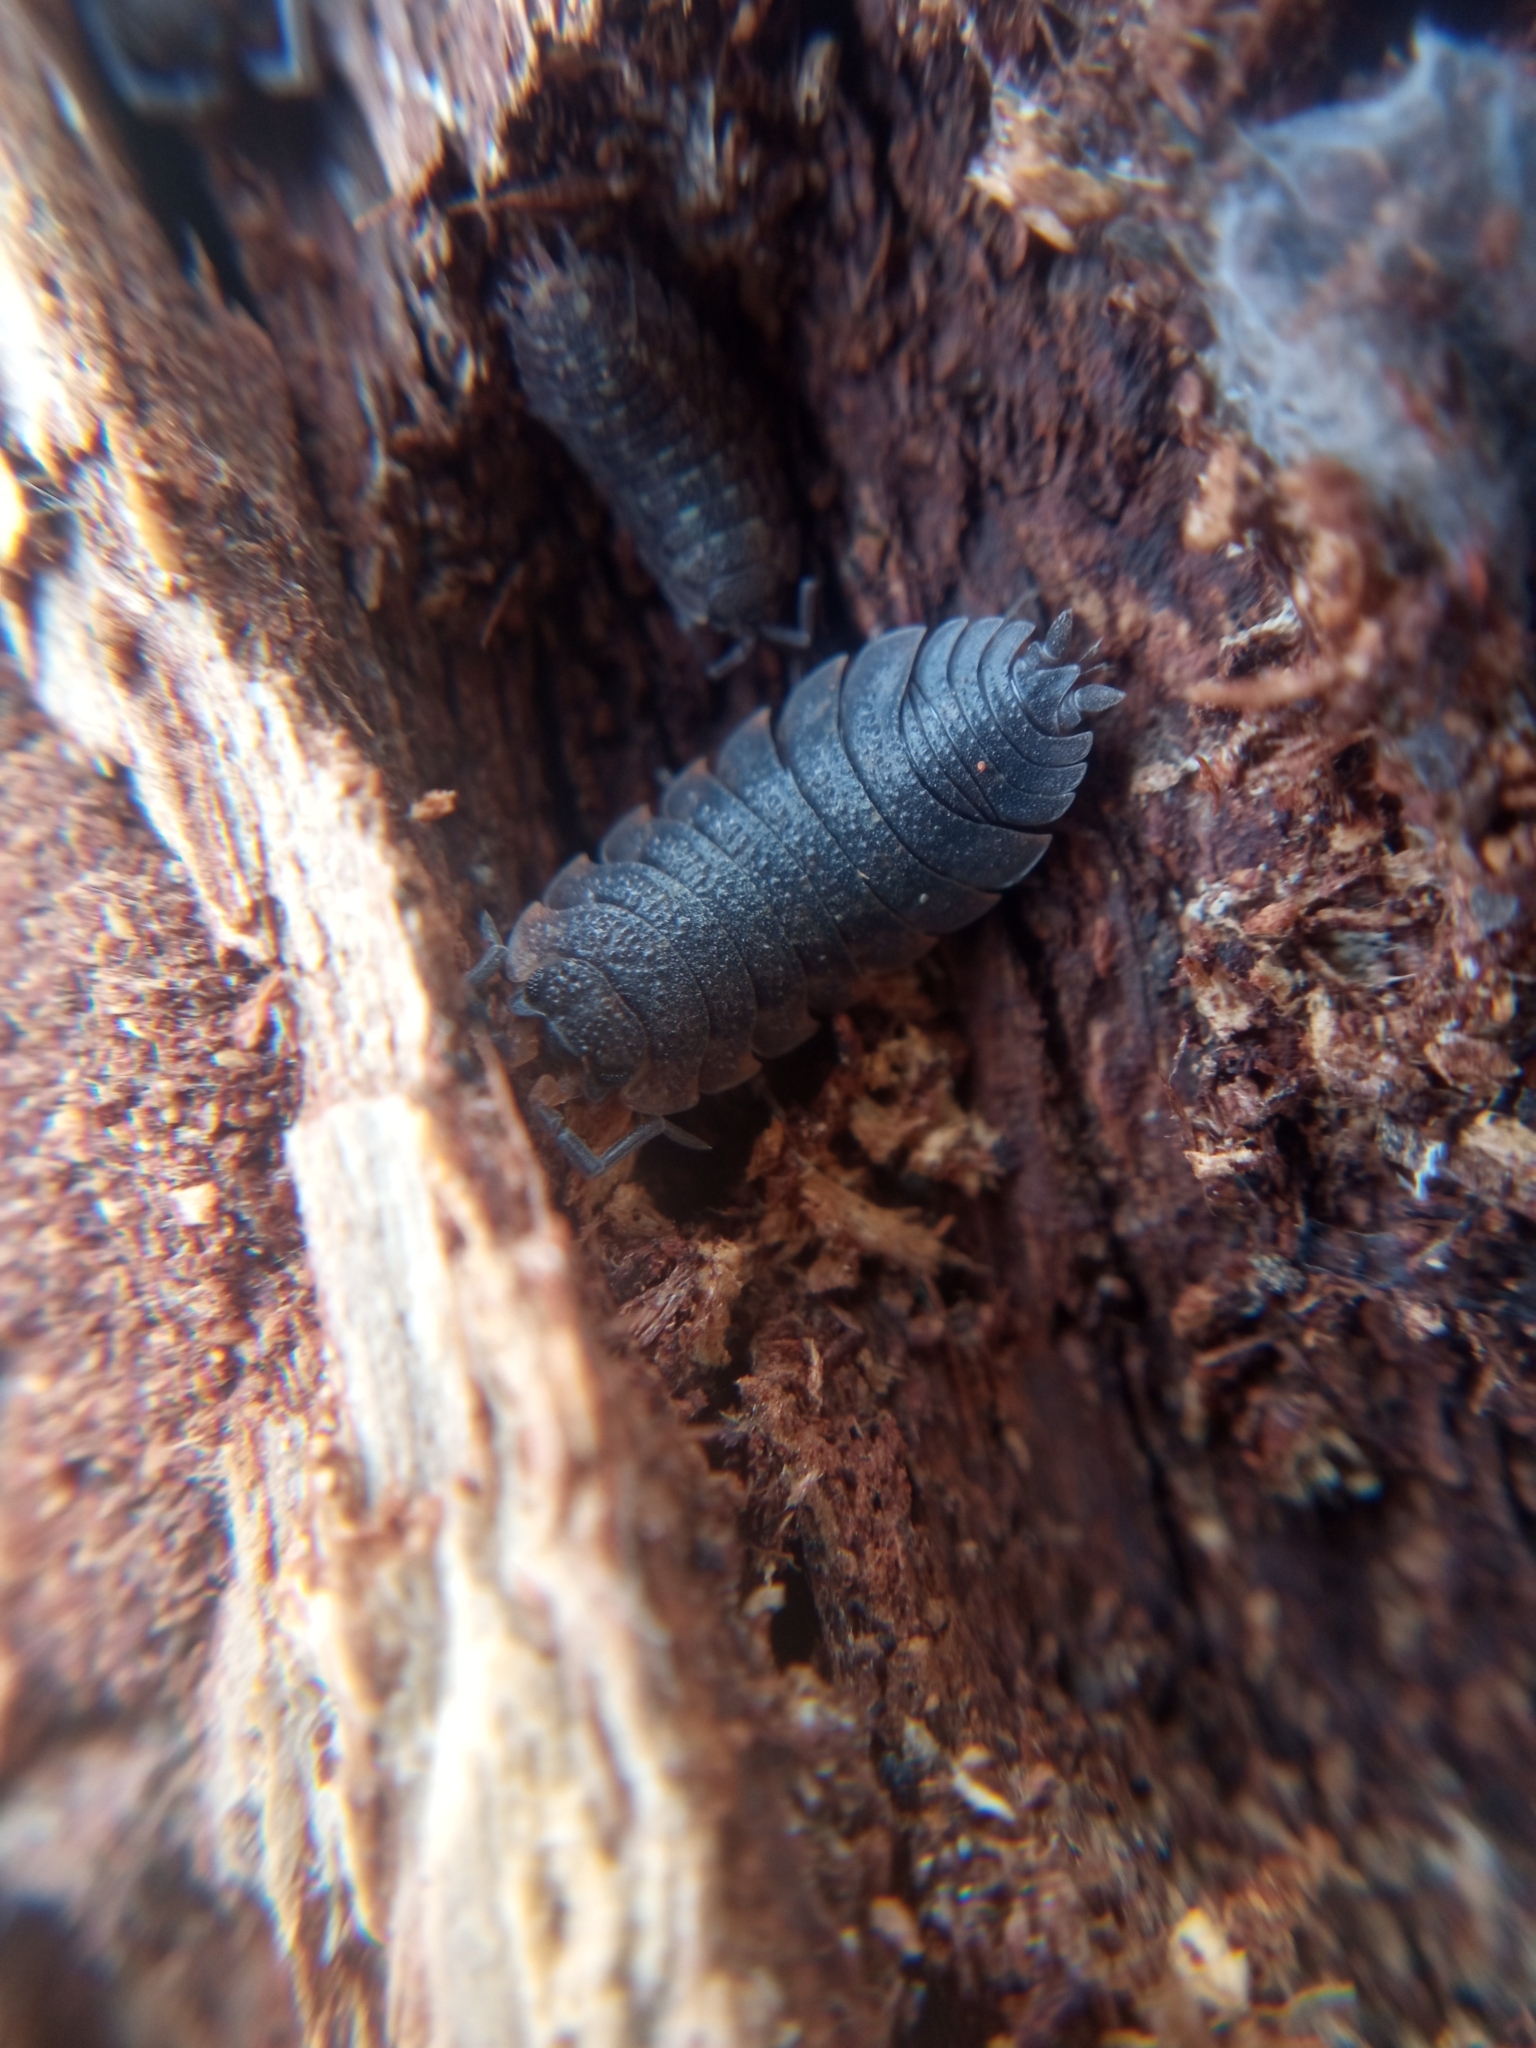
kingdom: Animalia
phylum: Arthropoda
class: Malacostraca
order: Isopoda
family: Porcellionidae
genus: Porcellio
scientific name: Porcellio scaber
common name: Common rough woodlouse
